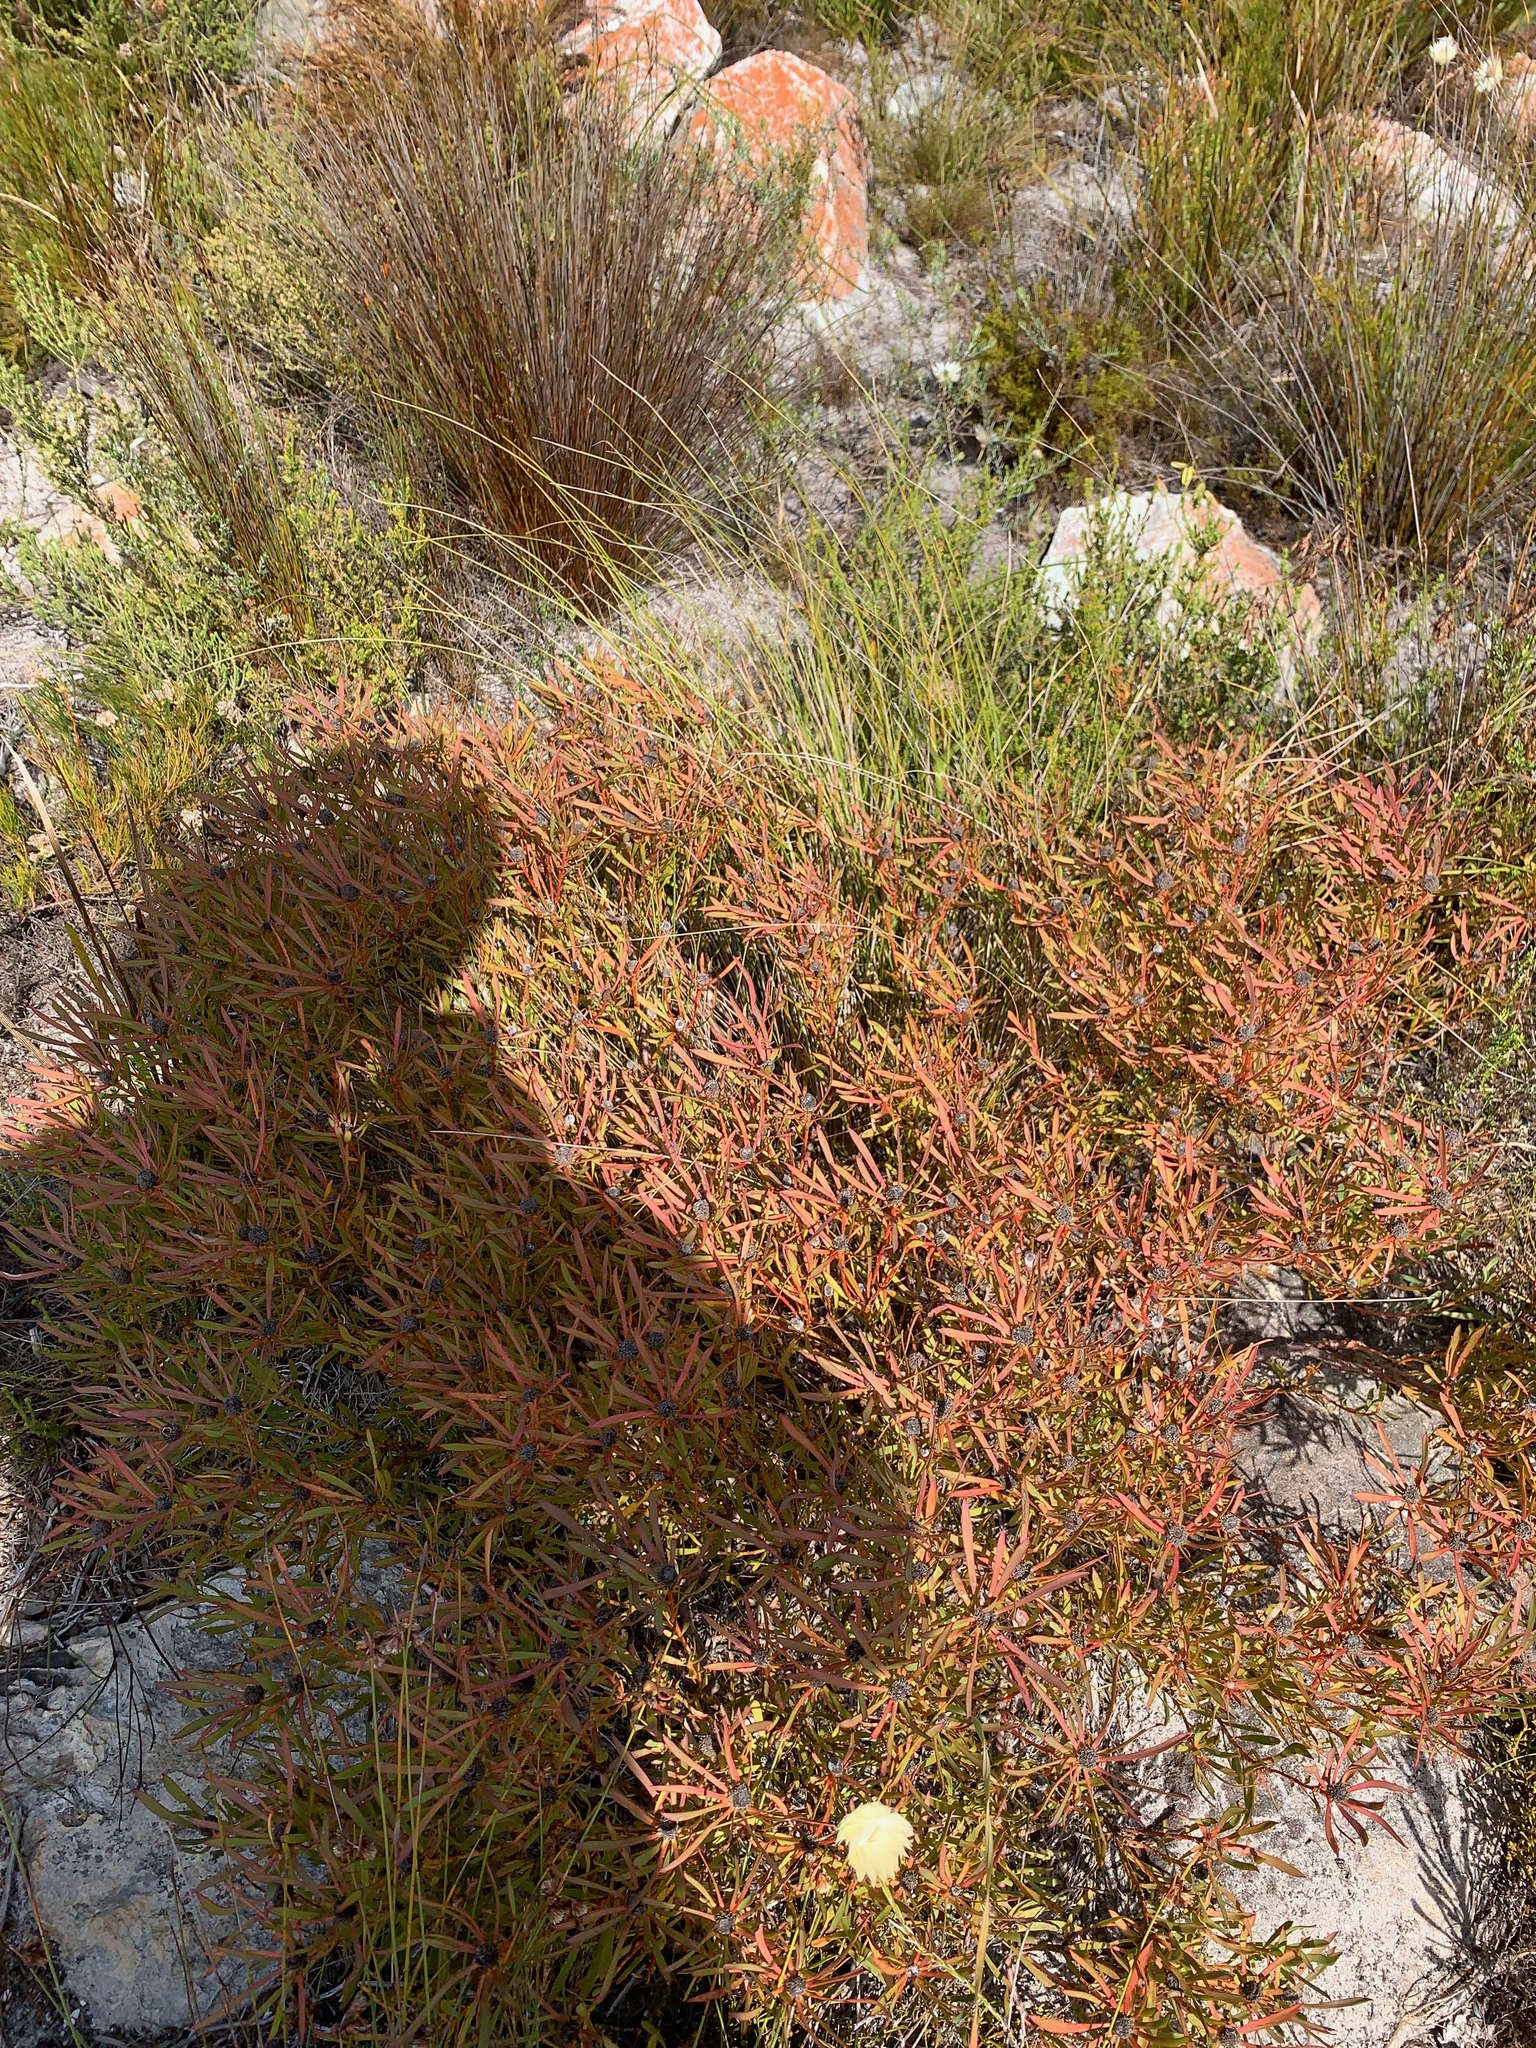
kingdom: Plantae
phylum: Tracheophyta
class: Magnoliopsida
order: Proteales
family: Proteaceae
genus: Leucadendron
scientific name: Leucadendron salignum
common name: Common sunshine conebush
